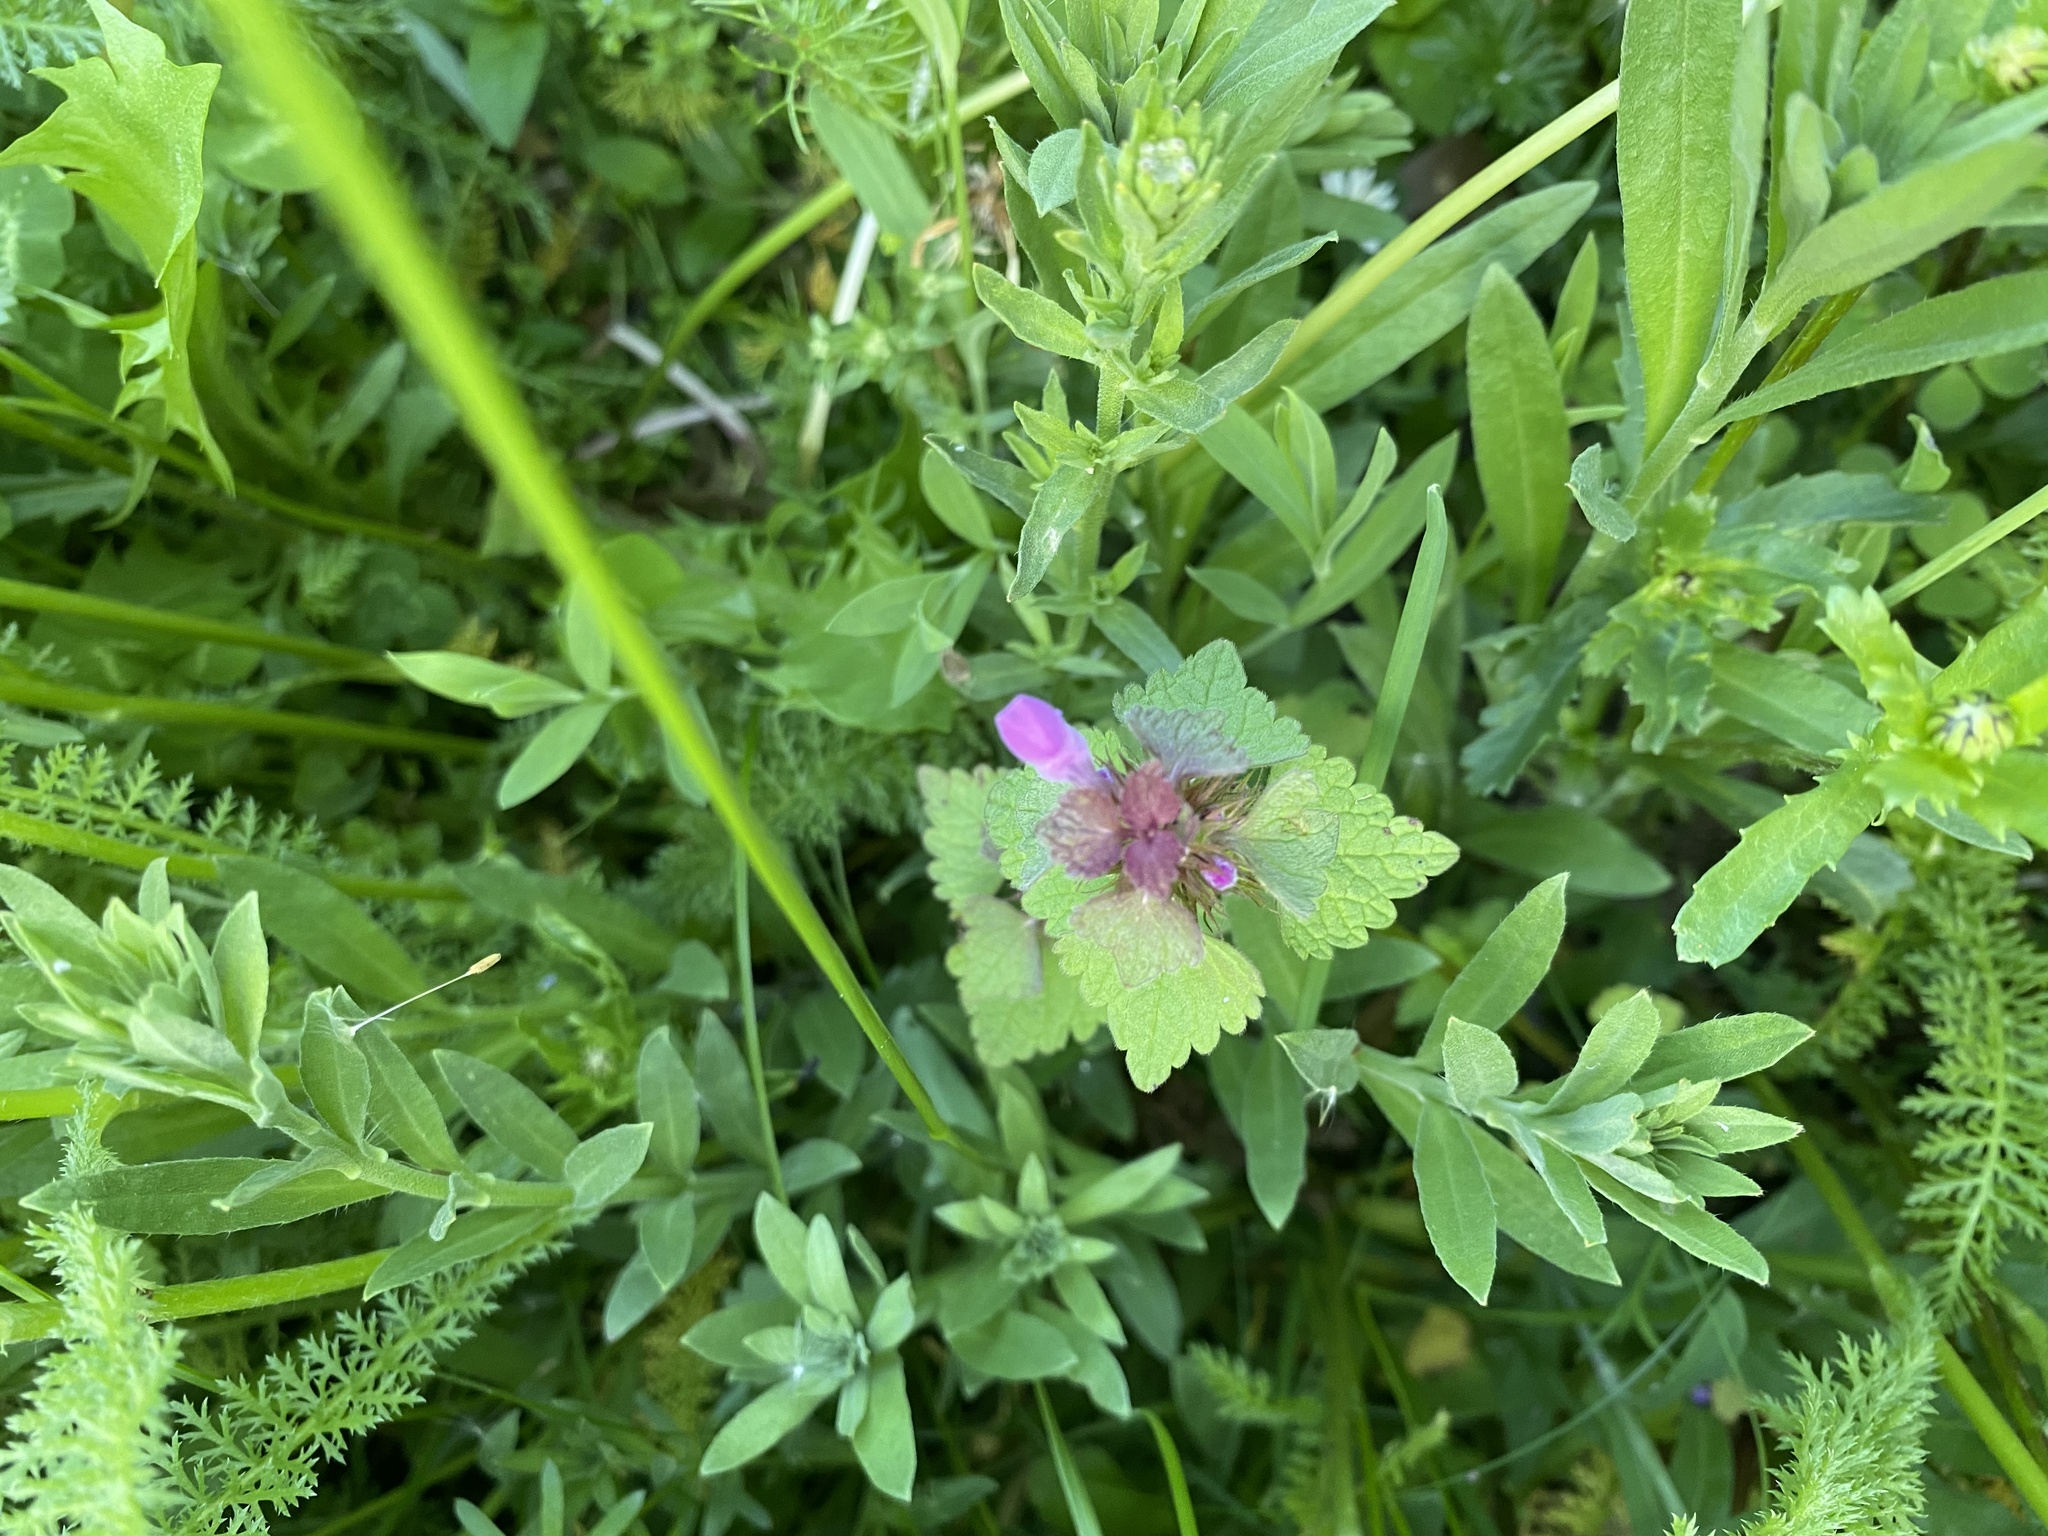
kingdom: Plantae
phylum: Tracheophyta
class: Magnoliopsida
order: Lamiales
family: Lamiaceae
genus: Lamium
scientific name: Lamium purpureum
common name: Red dead-nettle
